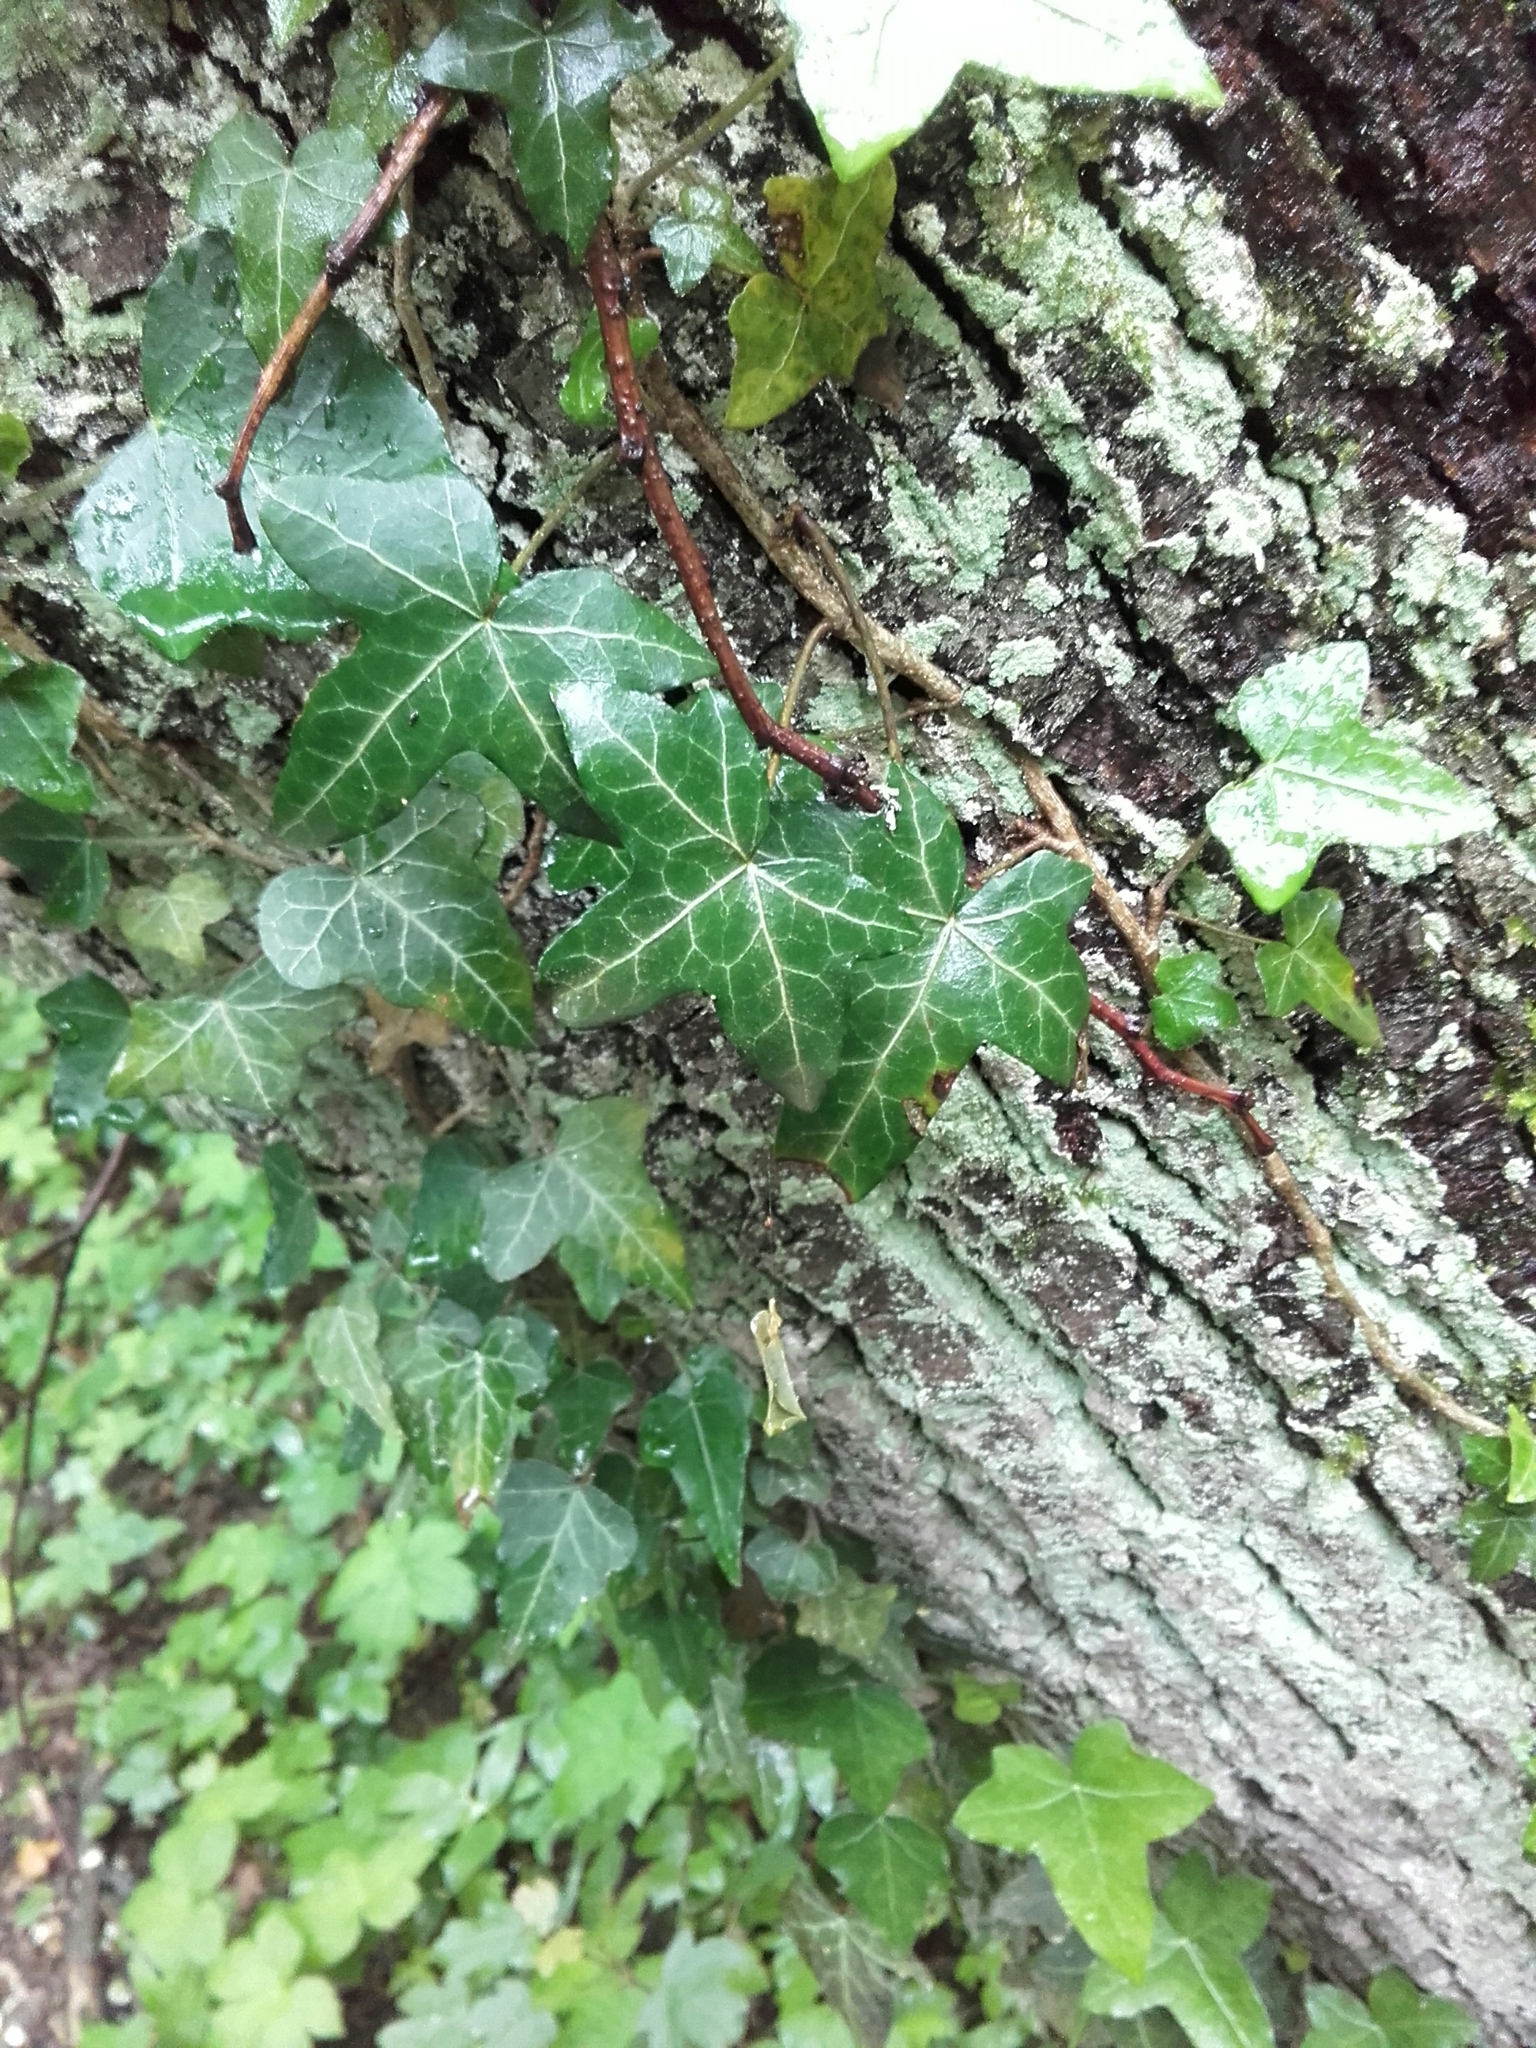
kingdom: Plantae
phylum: Tracheophyta
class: Magnoliopsida
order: Apiales
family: Araliaceae
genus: Hedera
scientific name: Hedera helix
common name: Ivy
